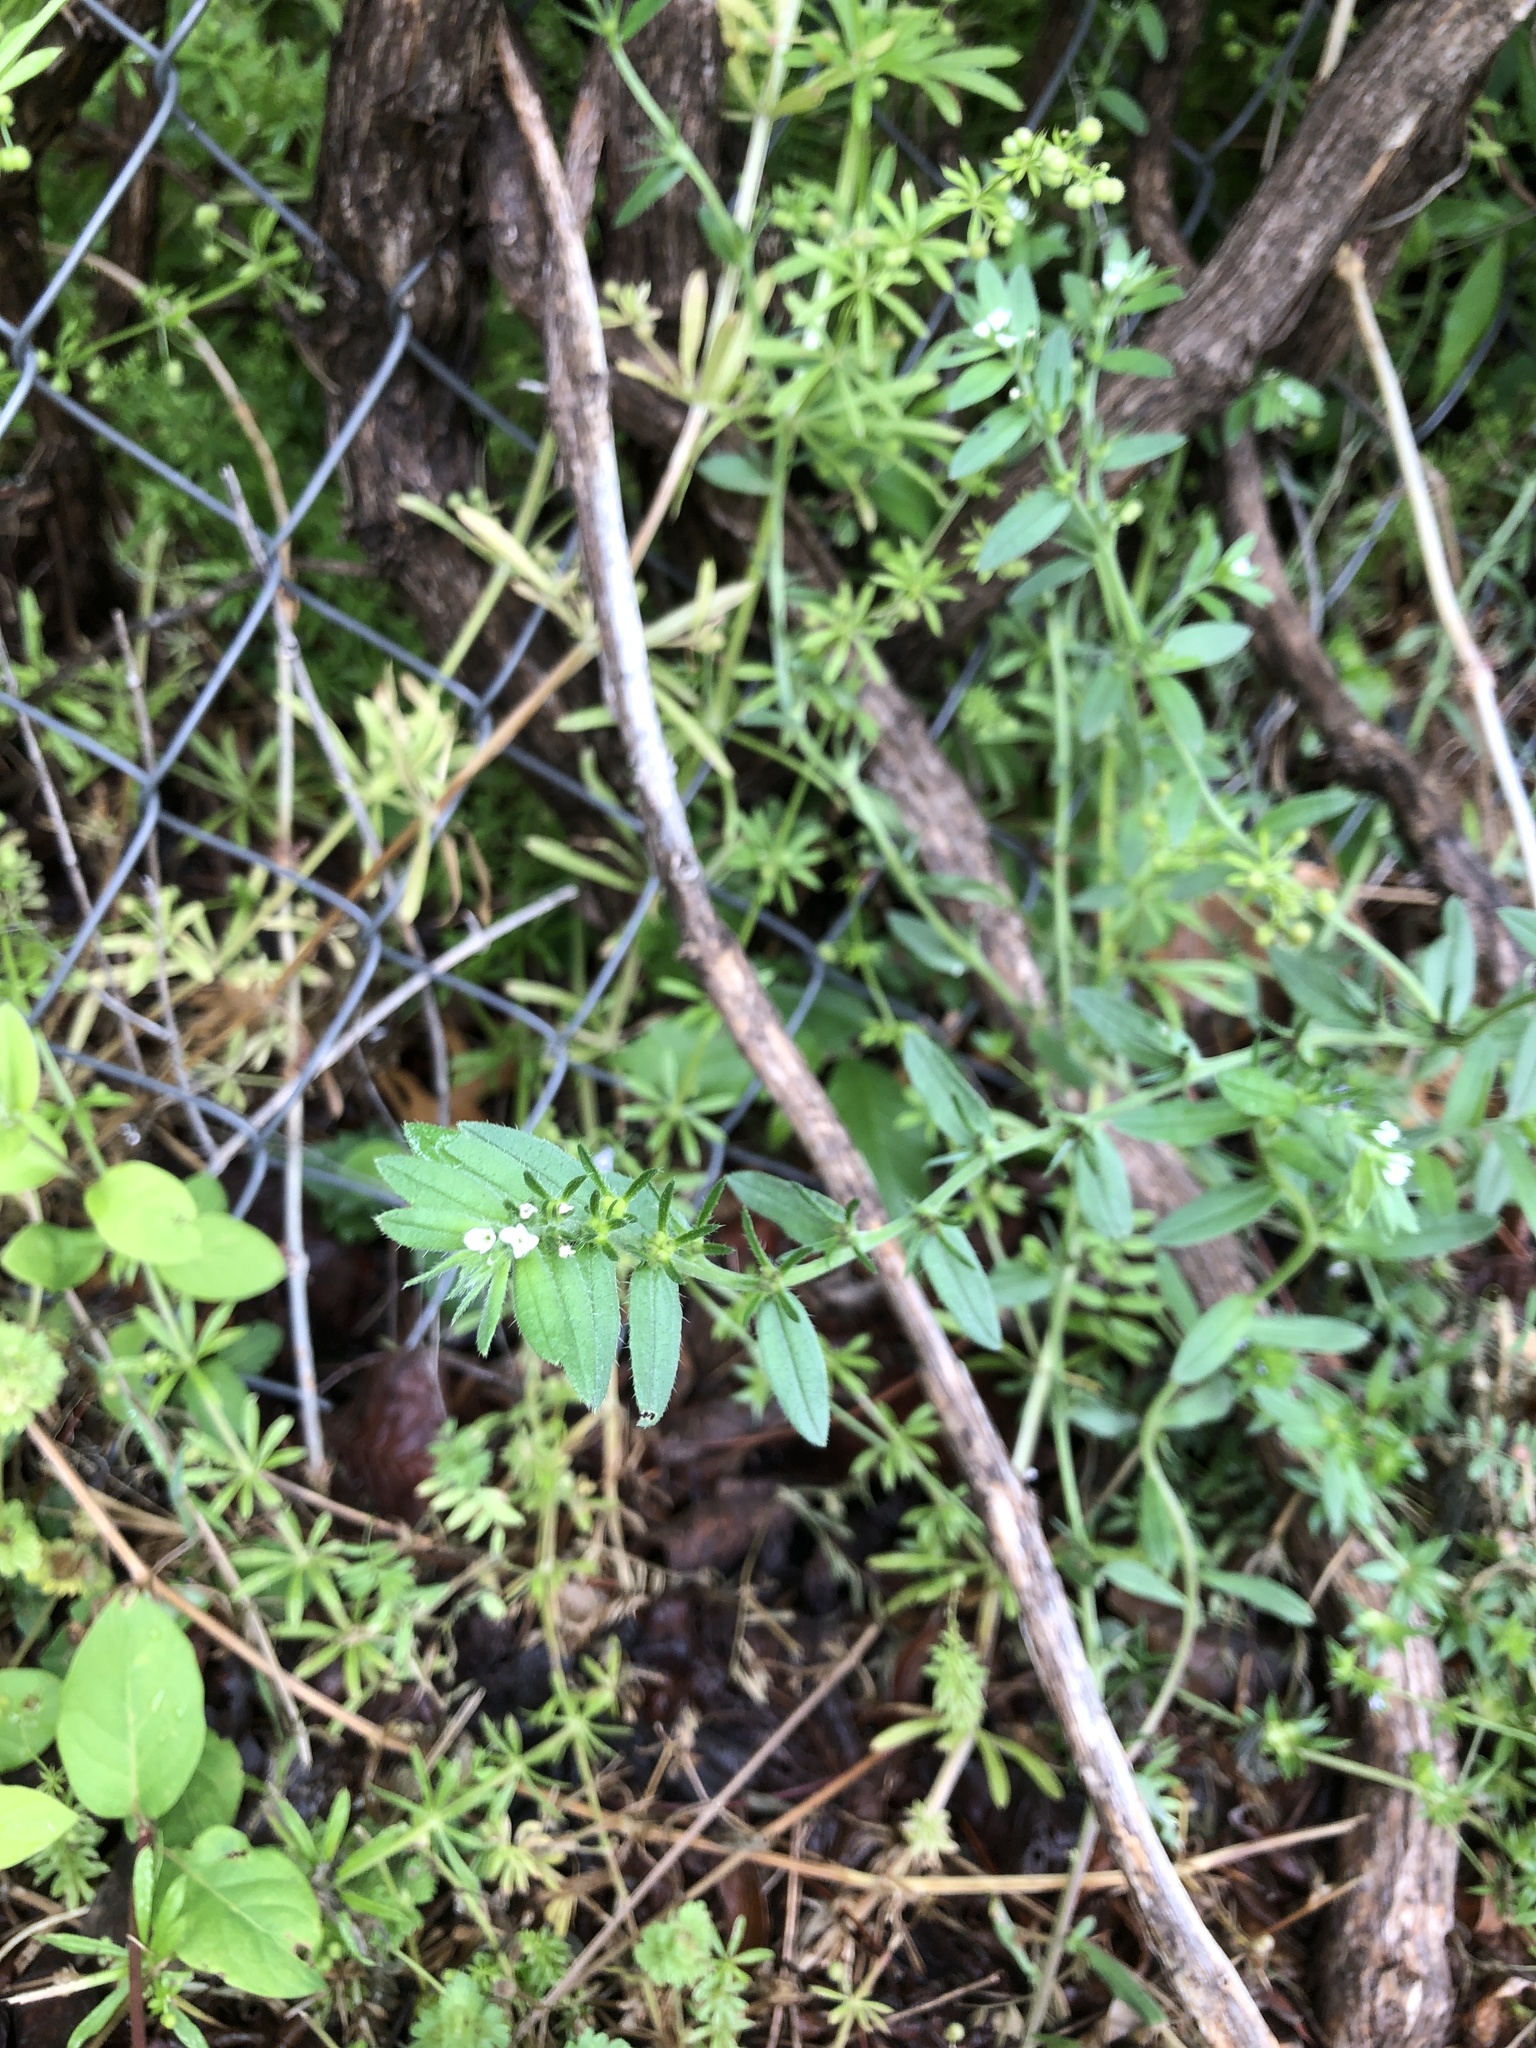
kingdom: Plantae
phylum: Tracheophyta
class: Magnoliopsida
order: Boraginales
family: Boraginaceae
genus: Buglossoides
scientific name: Buglossoides arvensis
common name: Corn gromwell
